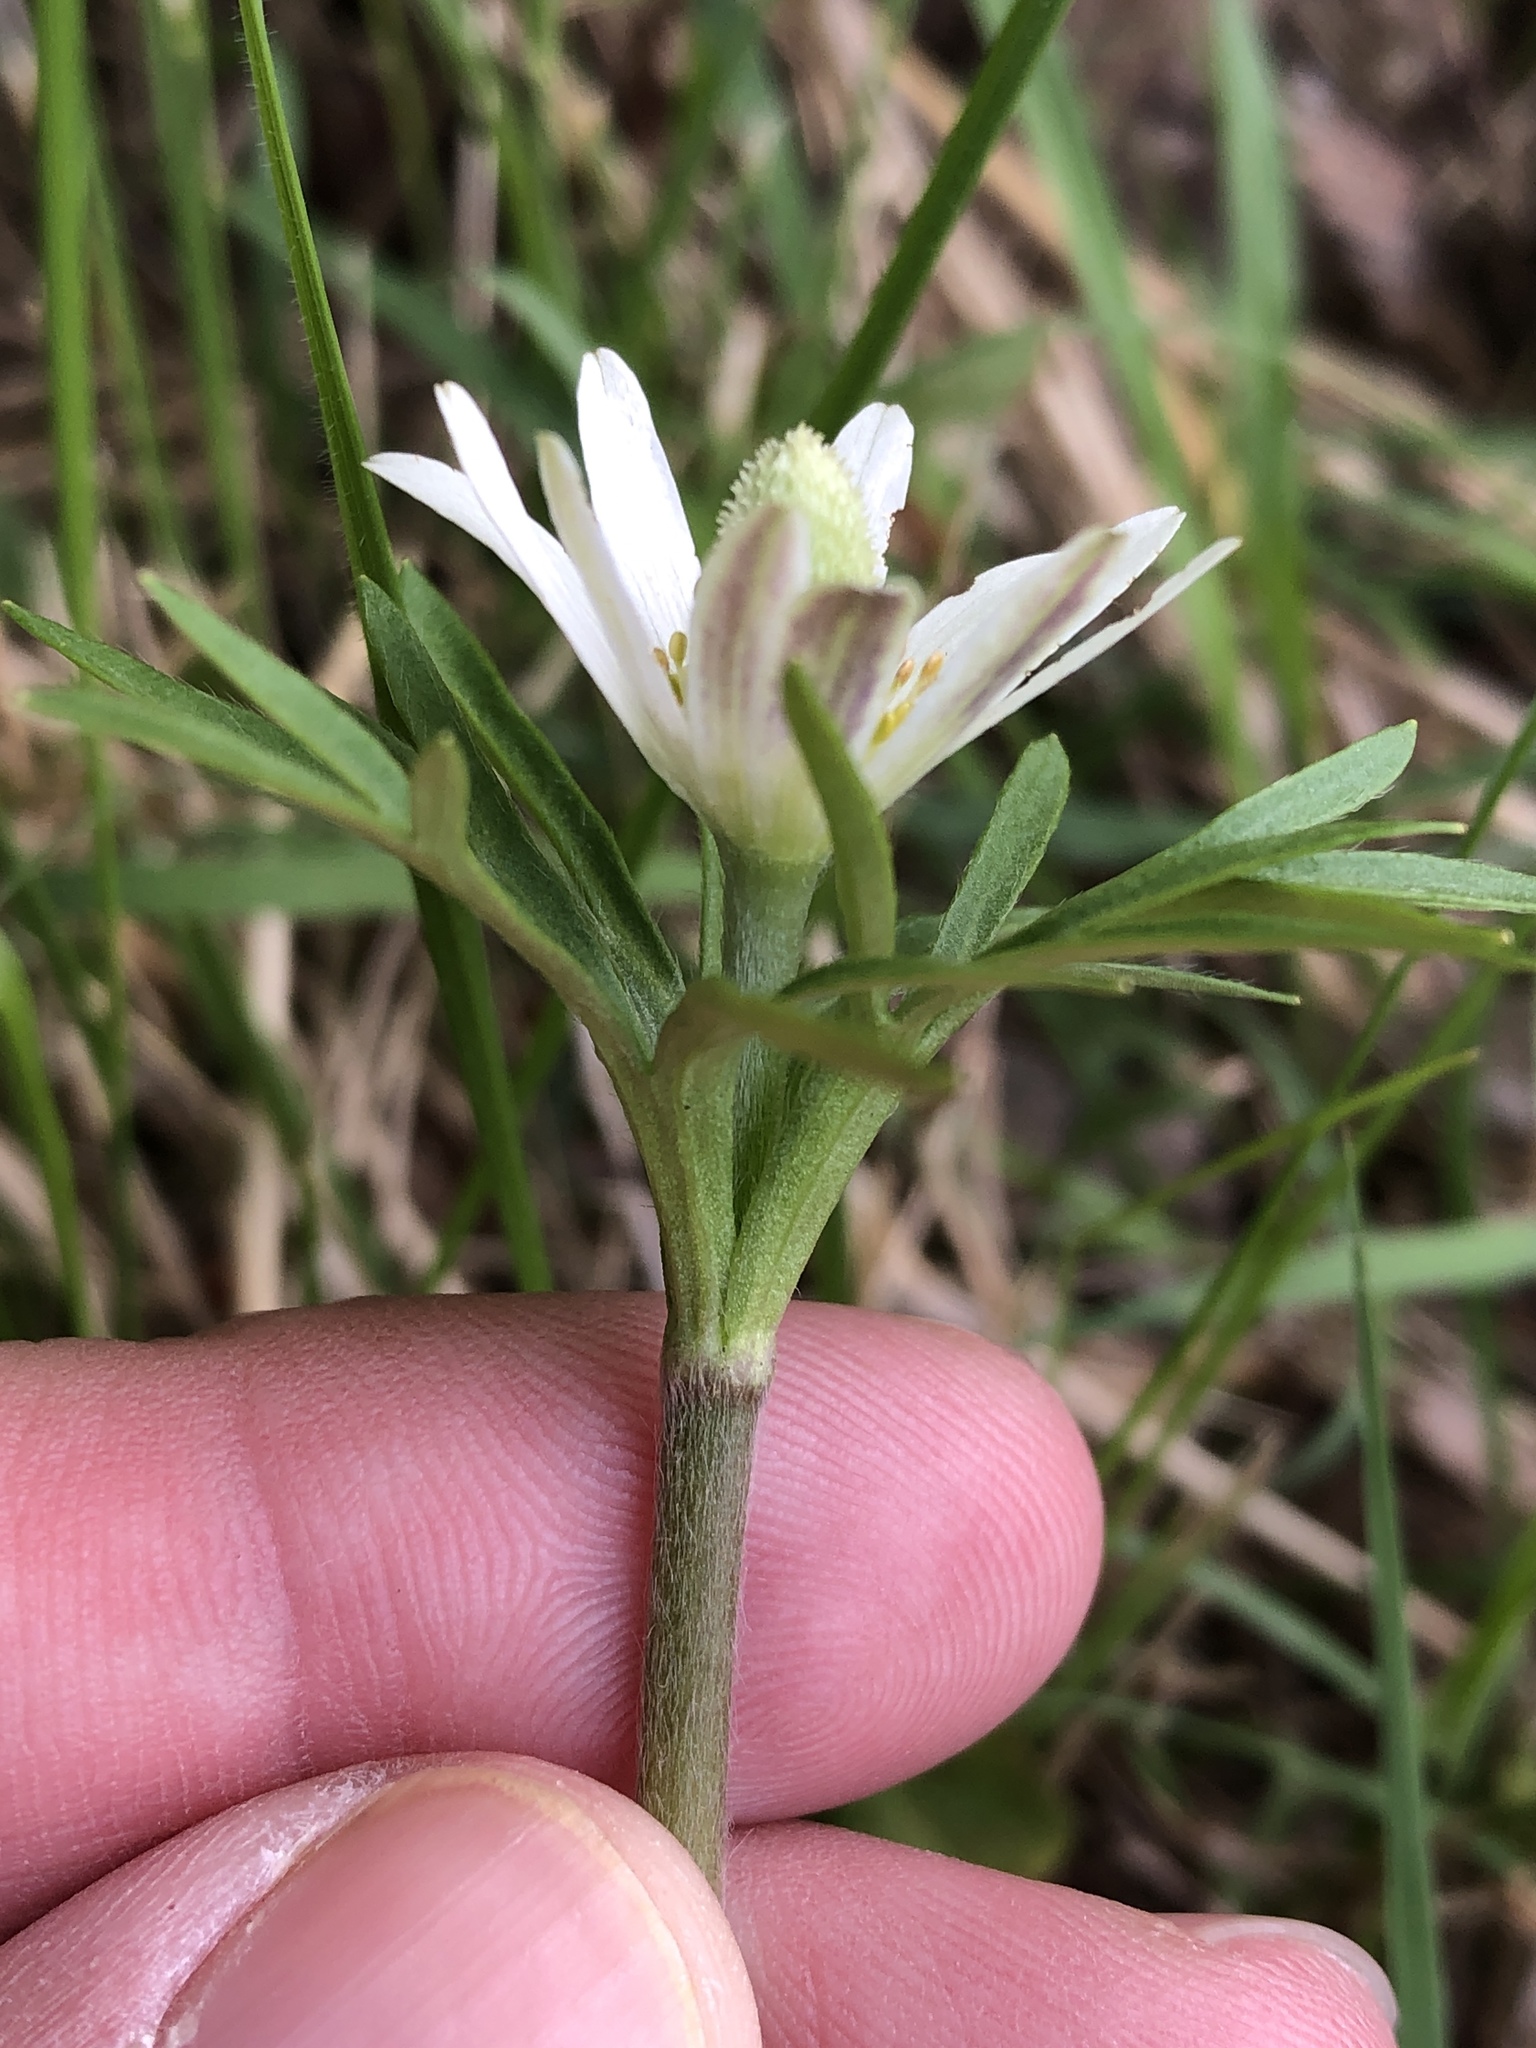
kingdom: Plantae
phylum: Tracheophyta
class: Magnoliopsida
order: Ranunculales
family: Ranunculaceae
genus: Anemone
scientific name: Anemone berlandieri
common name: Ten-petal anemone
